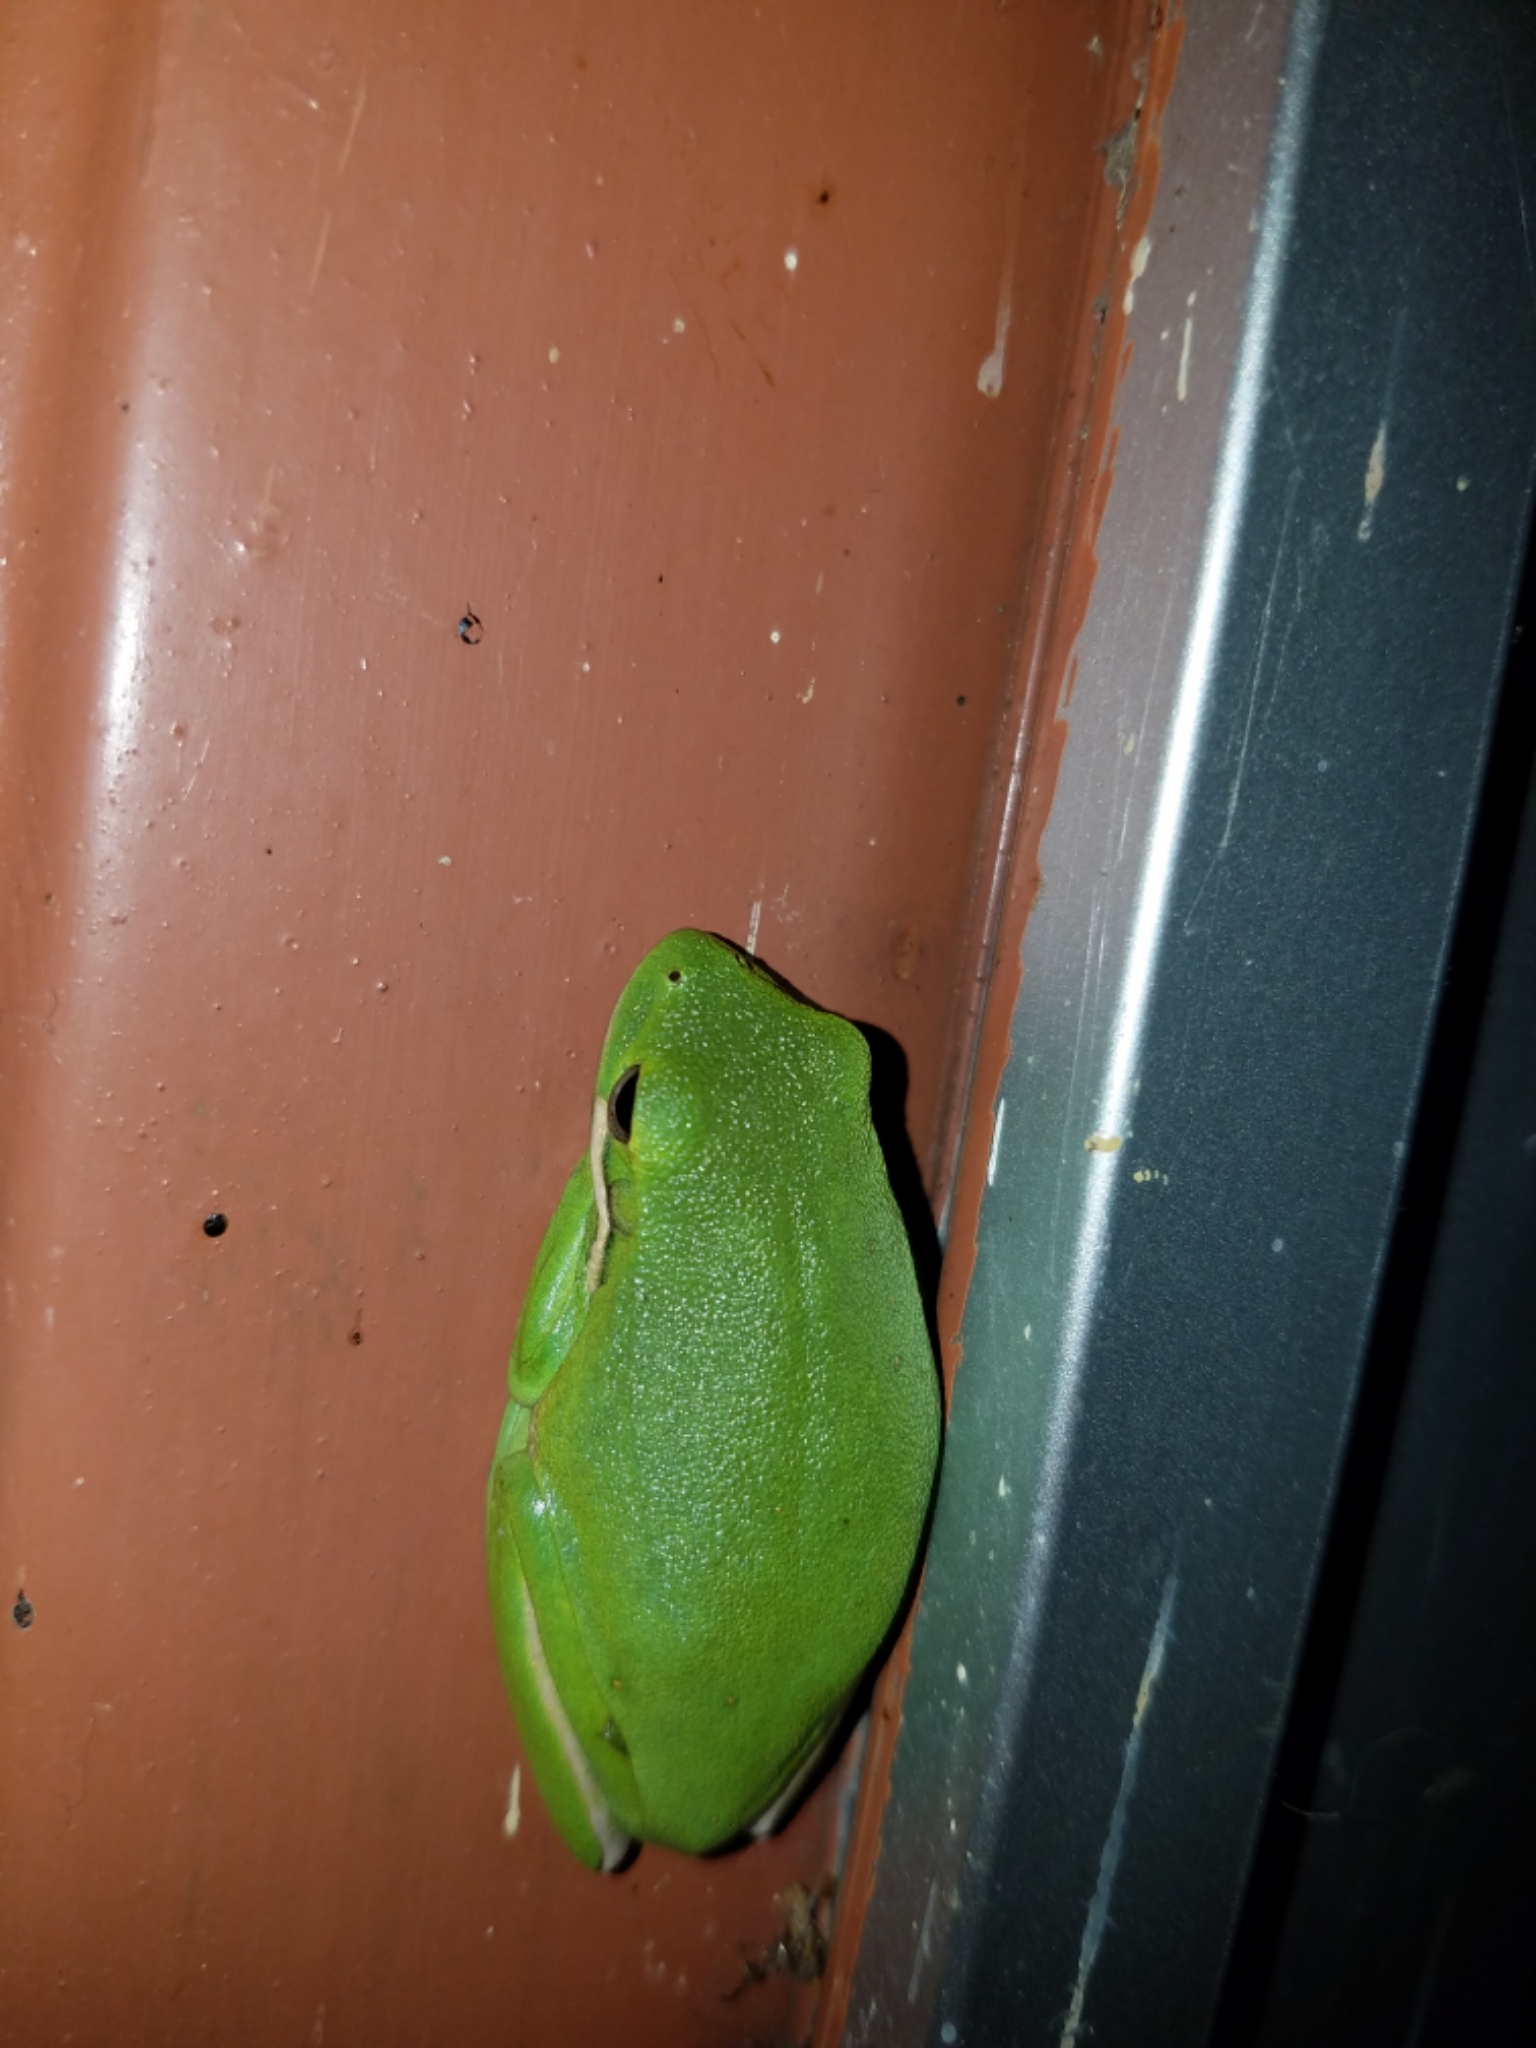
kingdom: Animalia
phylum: Chordata
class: Amphibia
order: Anura
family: Hylidae
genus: Dryophytes
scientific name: Dryophytes cinereus
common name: Green treefrog
